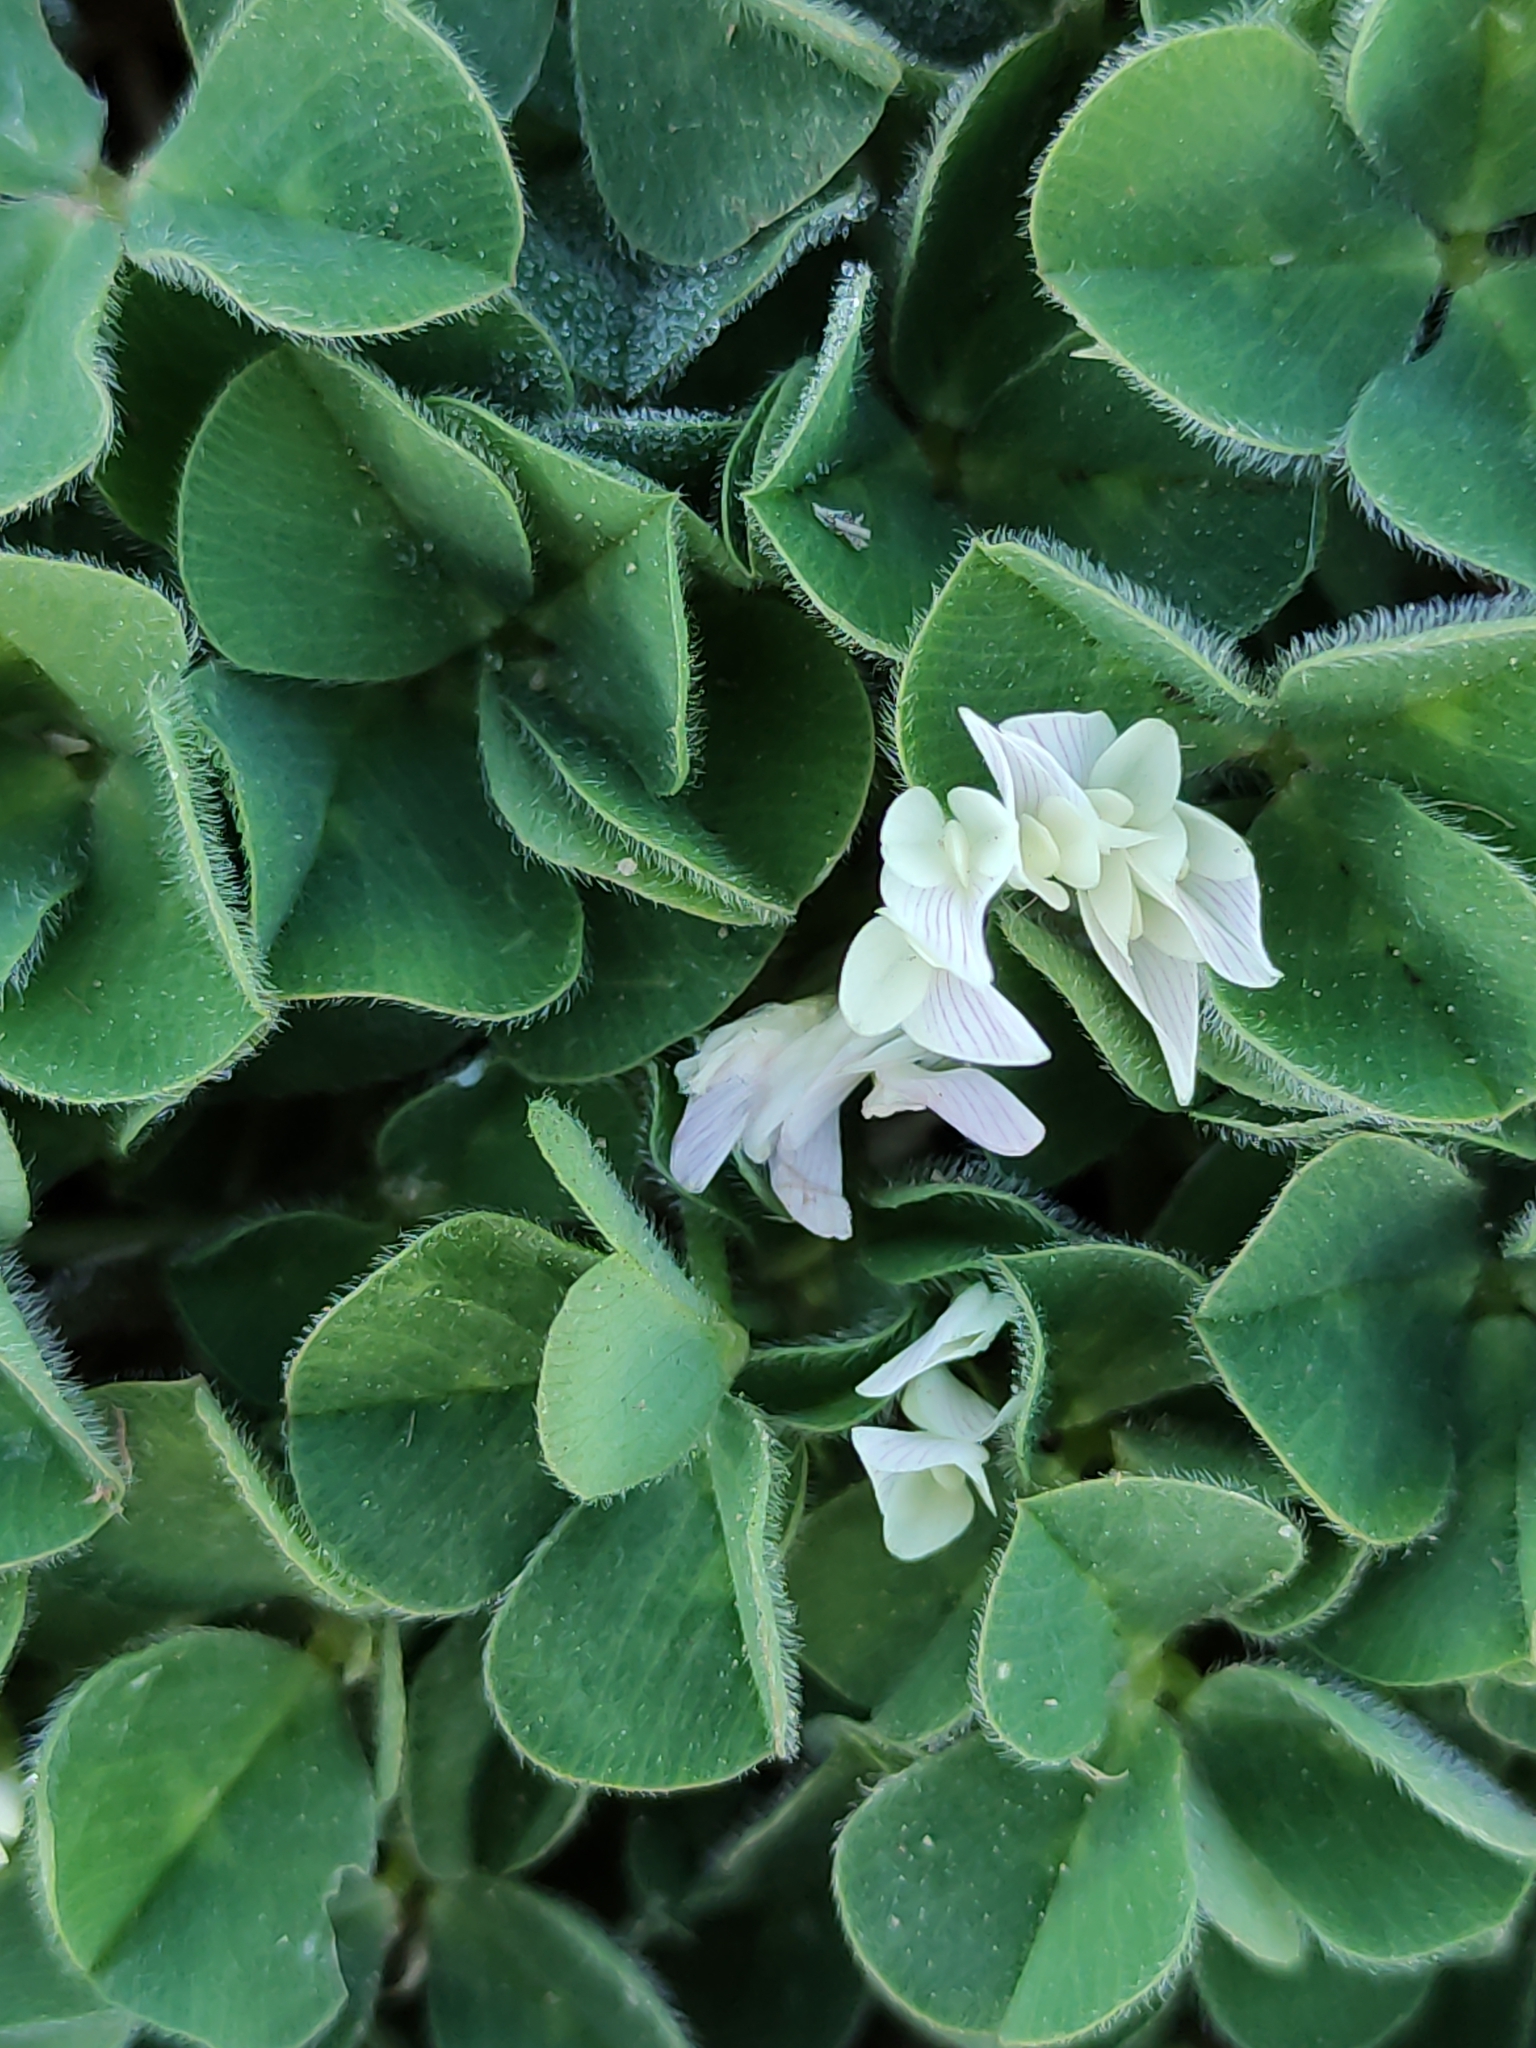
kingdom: Plantae
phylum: Tracheophyta
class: Magnoliopsida
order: Fabales
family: Fabaceae
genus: Trifolium
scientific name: Trifolium subterraneum
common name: Subterranean clover
